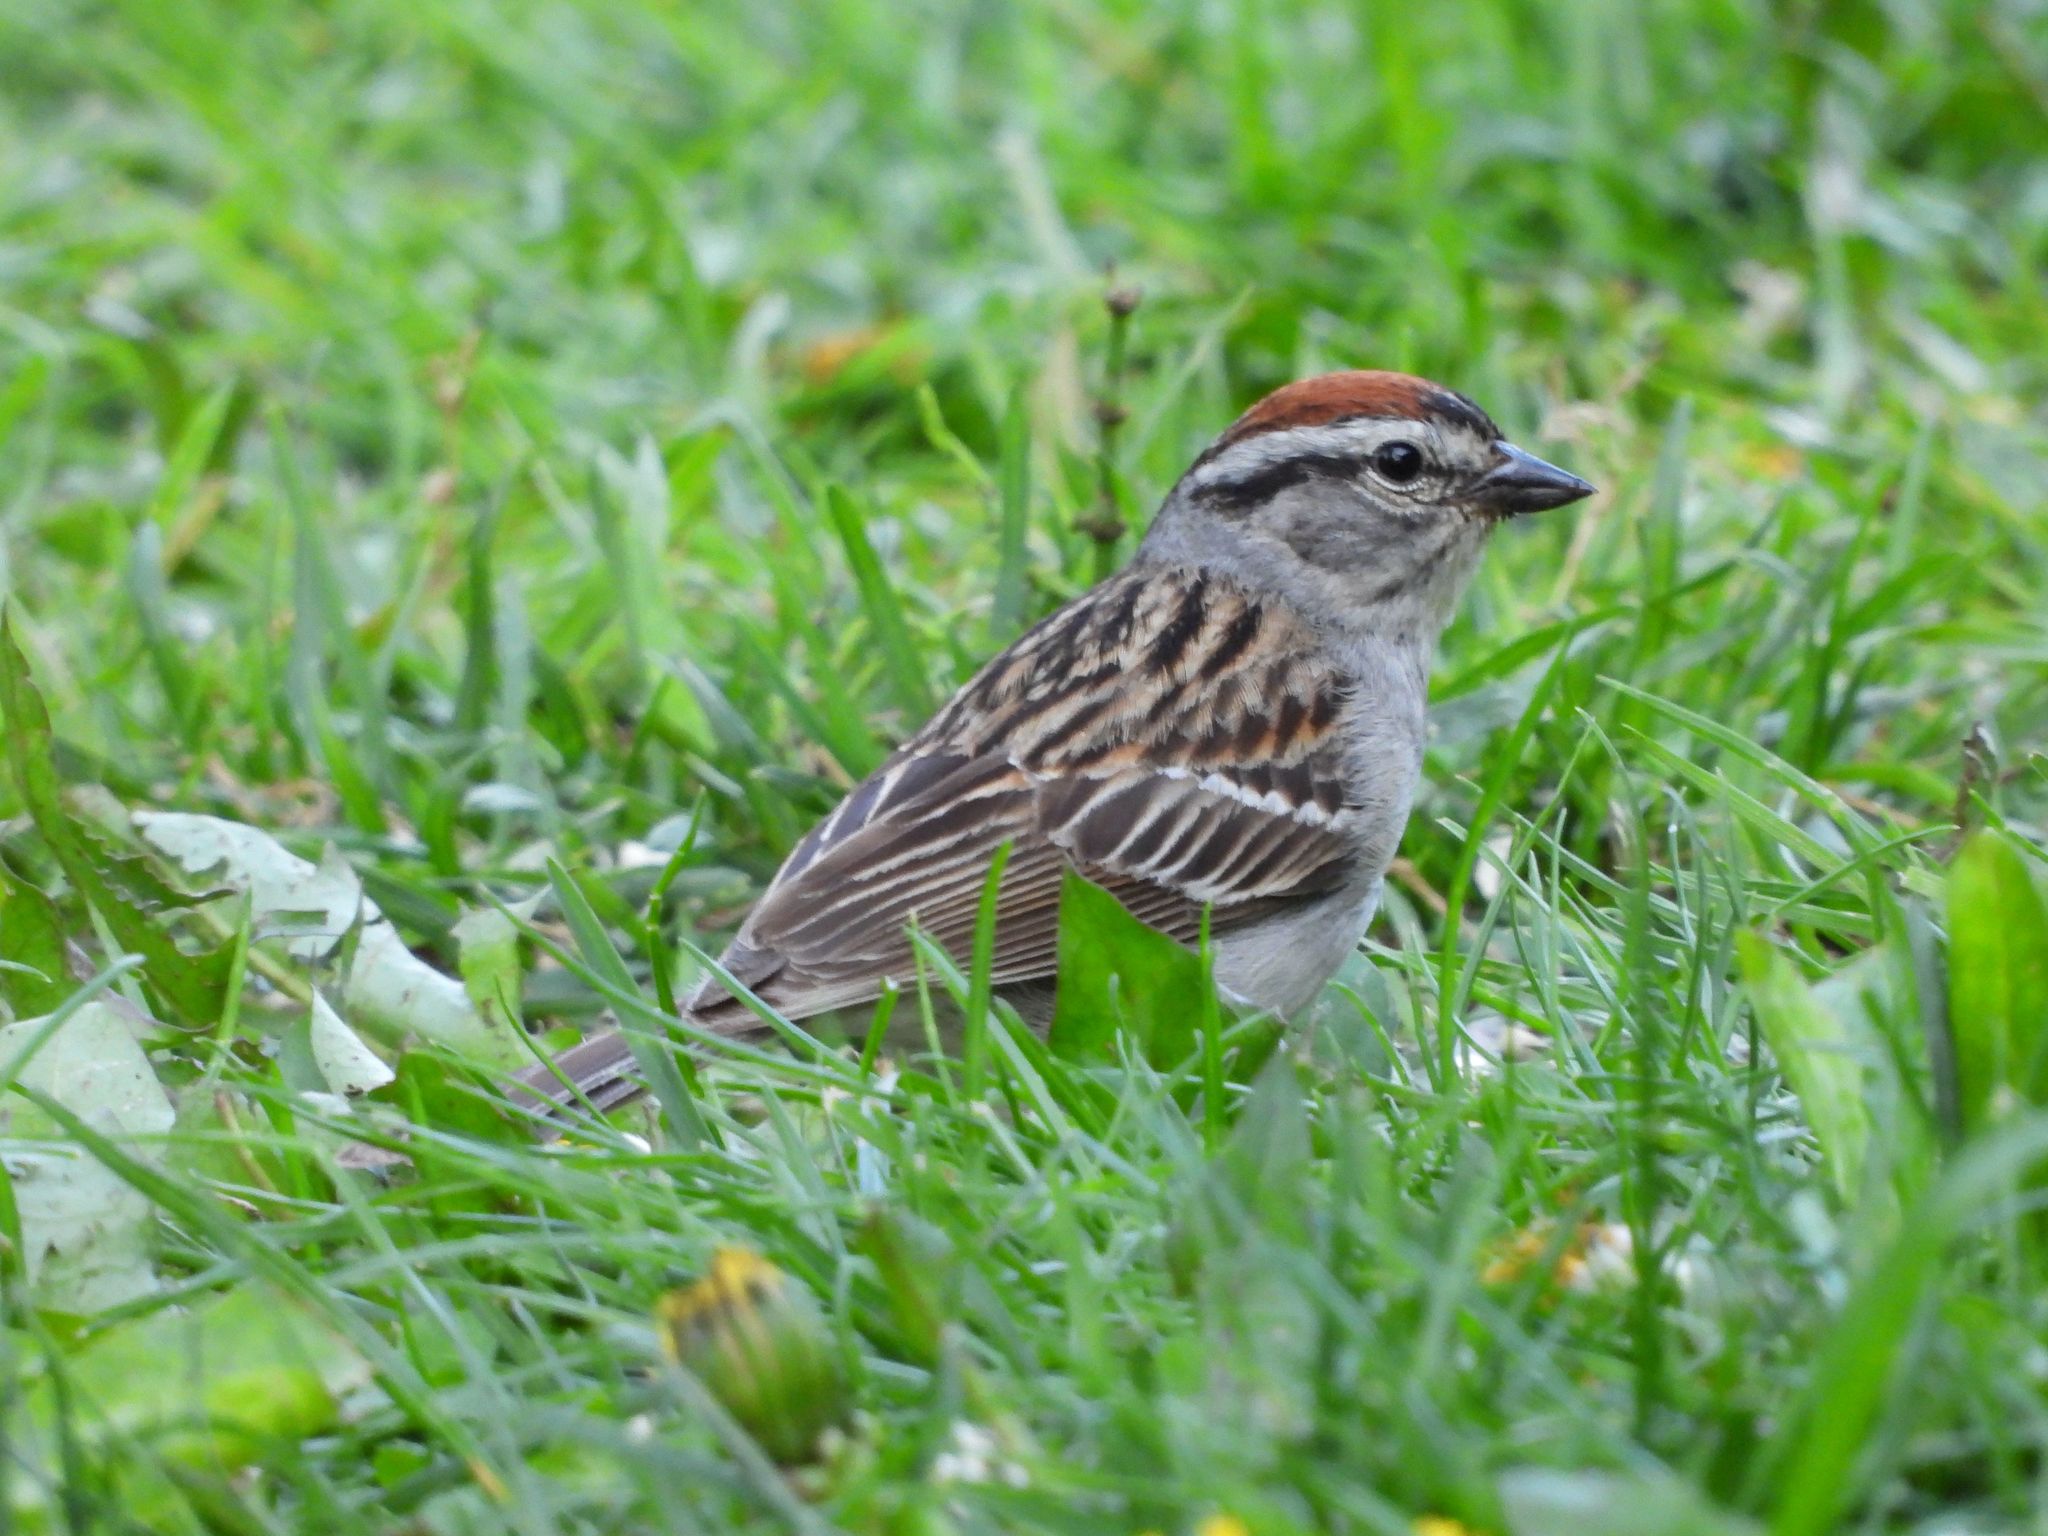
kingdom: Animalia
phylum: Chordata
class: Aves
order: Passeriformes
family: Passerellidae
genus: Spizella
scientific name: Spizella passerina
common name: Chipping sparrow
